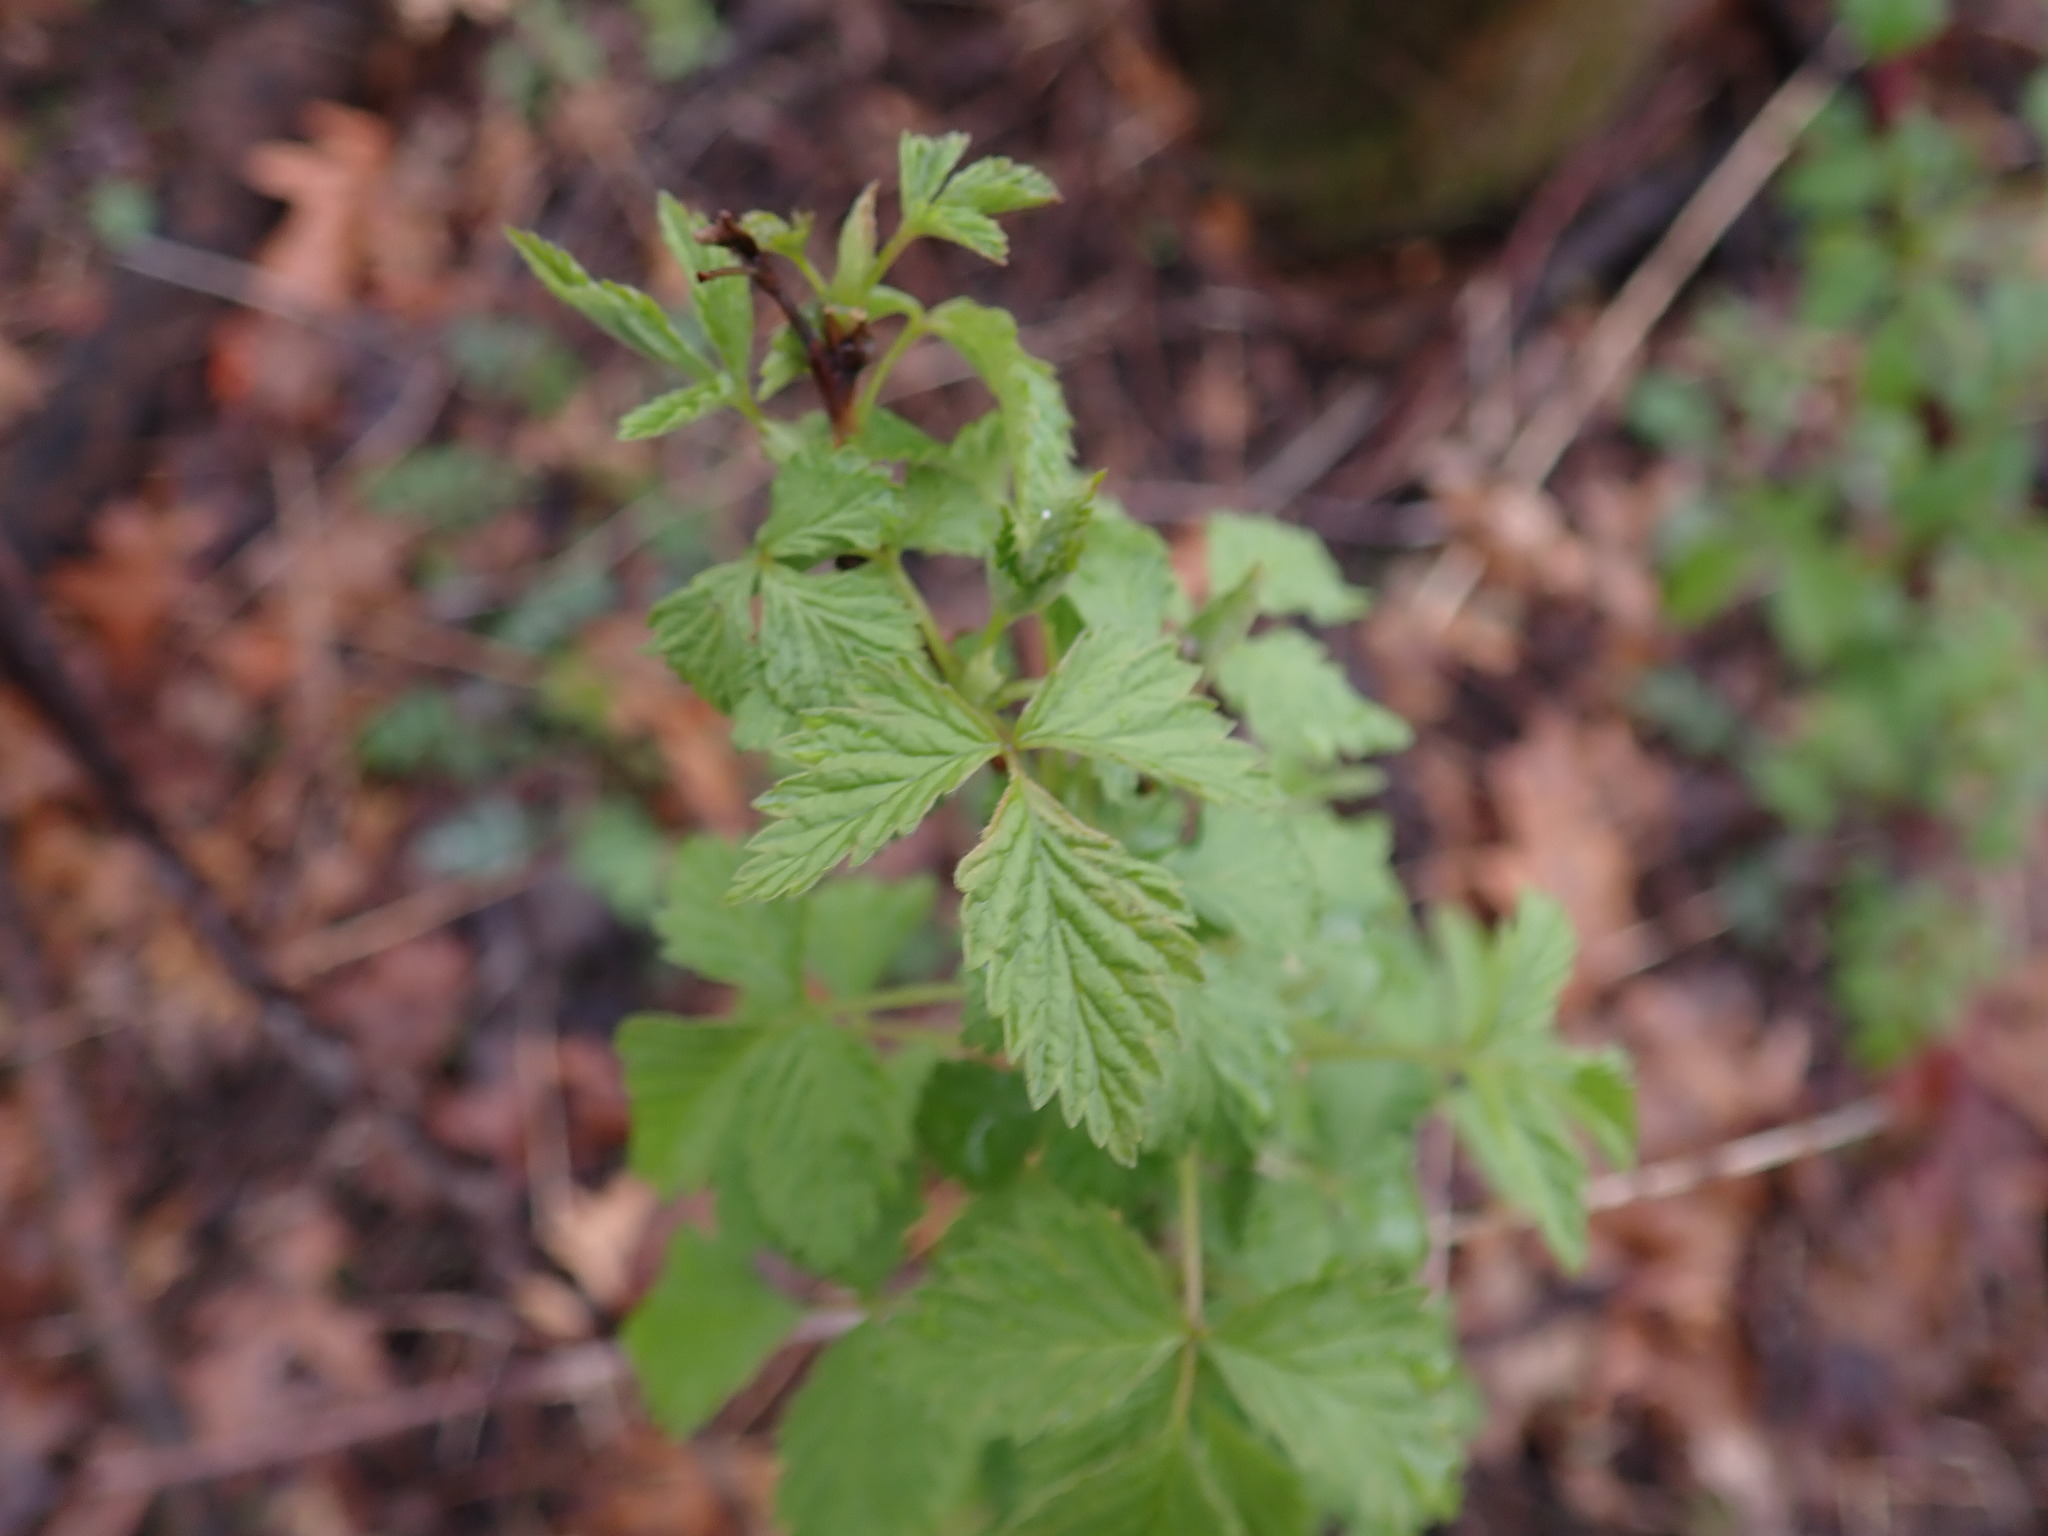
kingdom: Plantae
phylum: Tracheophyta
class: Magnoliopsida
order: Rosales
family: Rosaceae
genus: Rubus
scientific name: Rubus occidentalis
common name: Black raspberry
